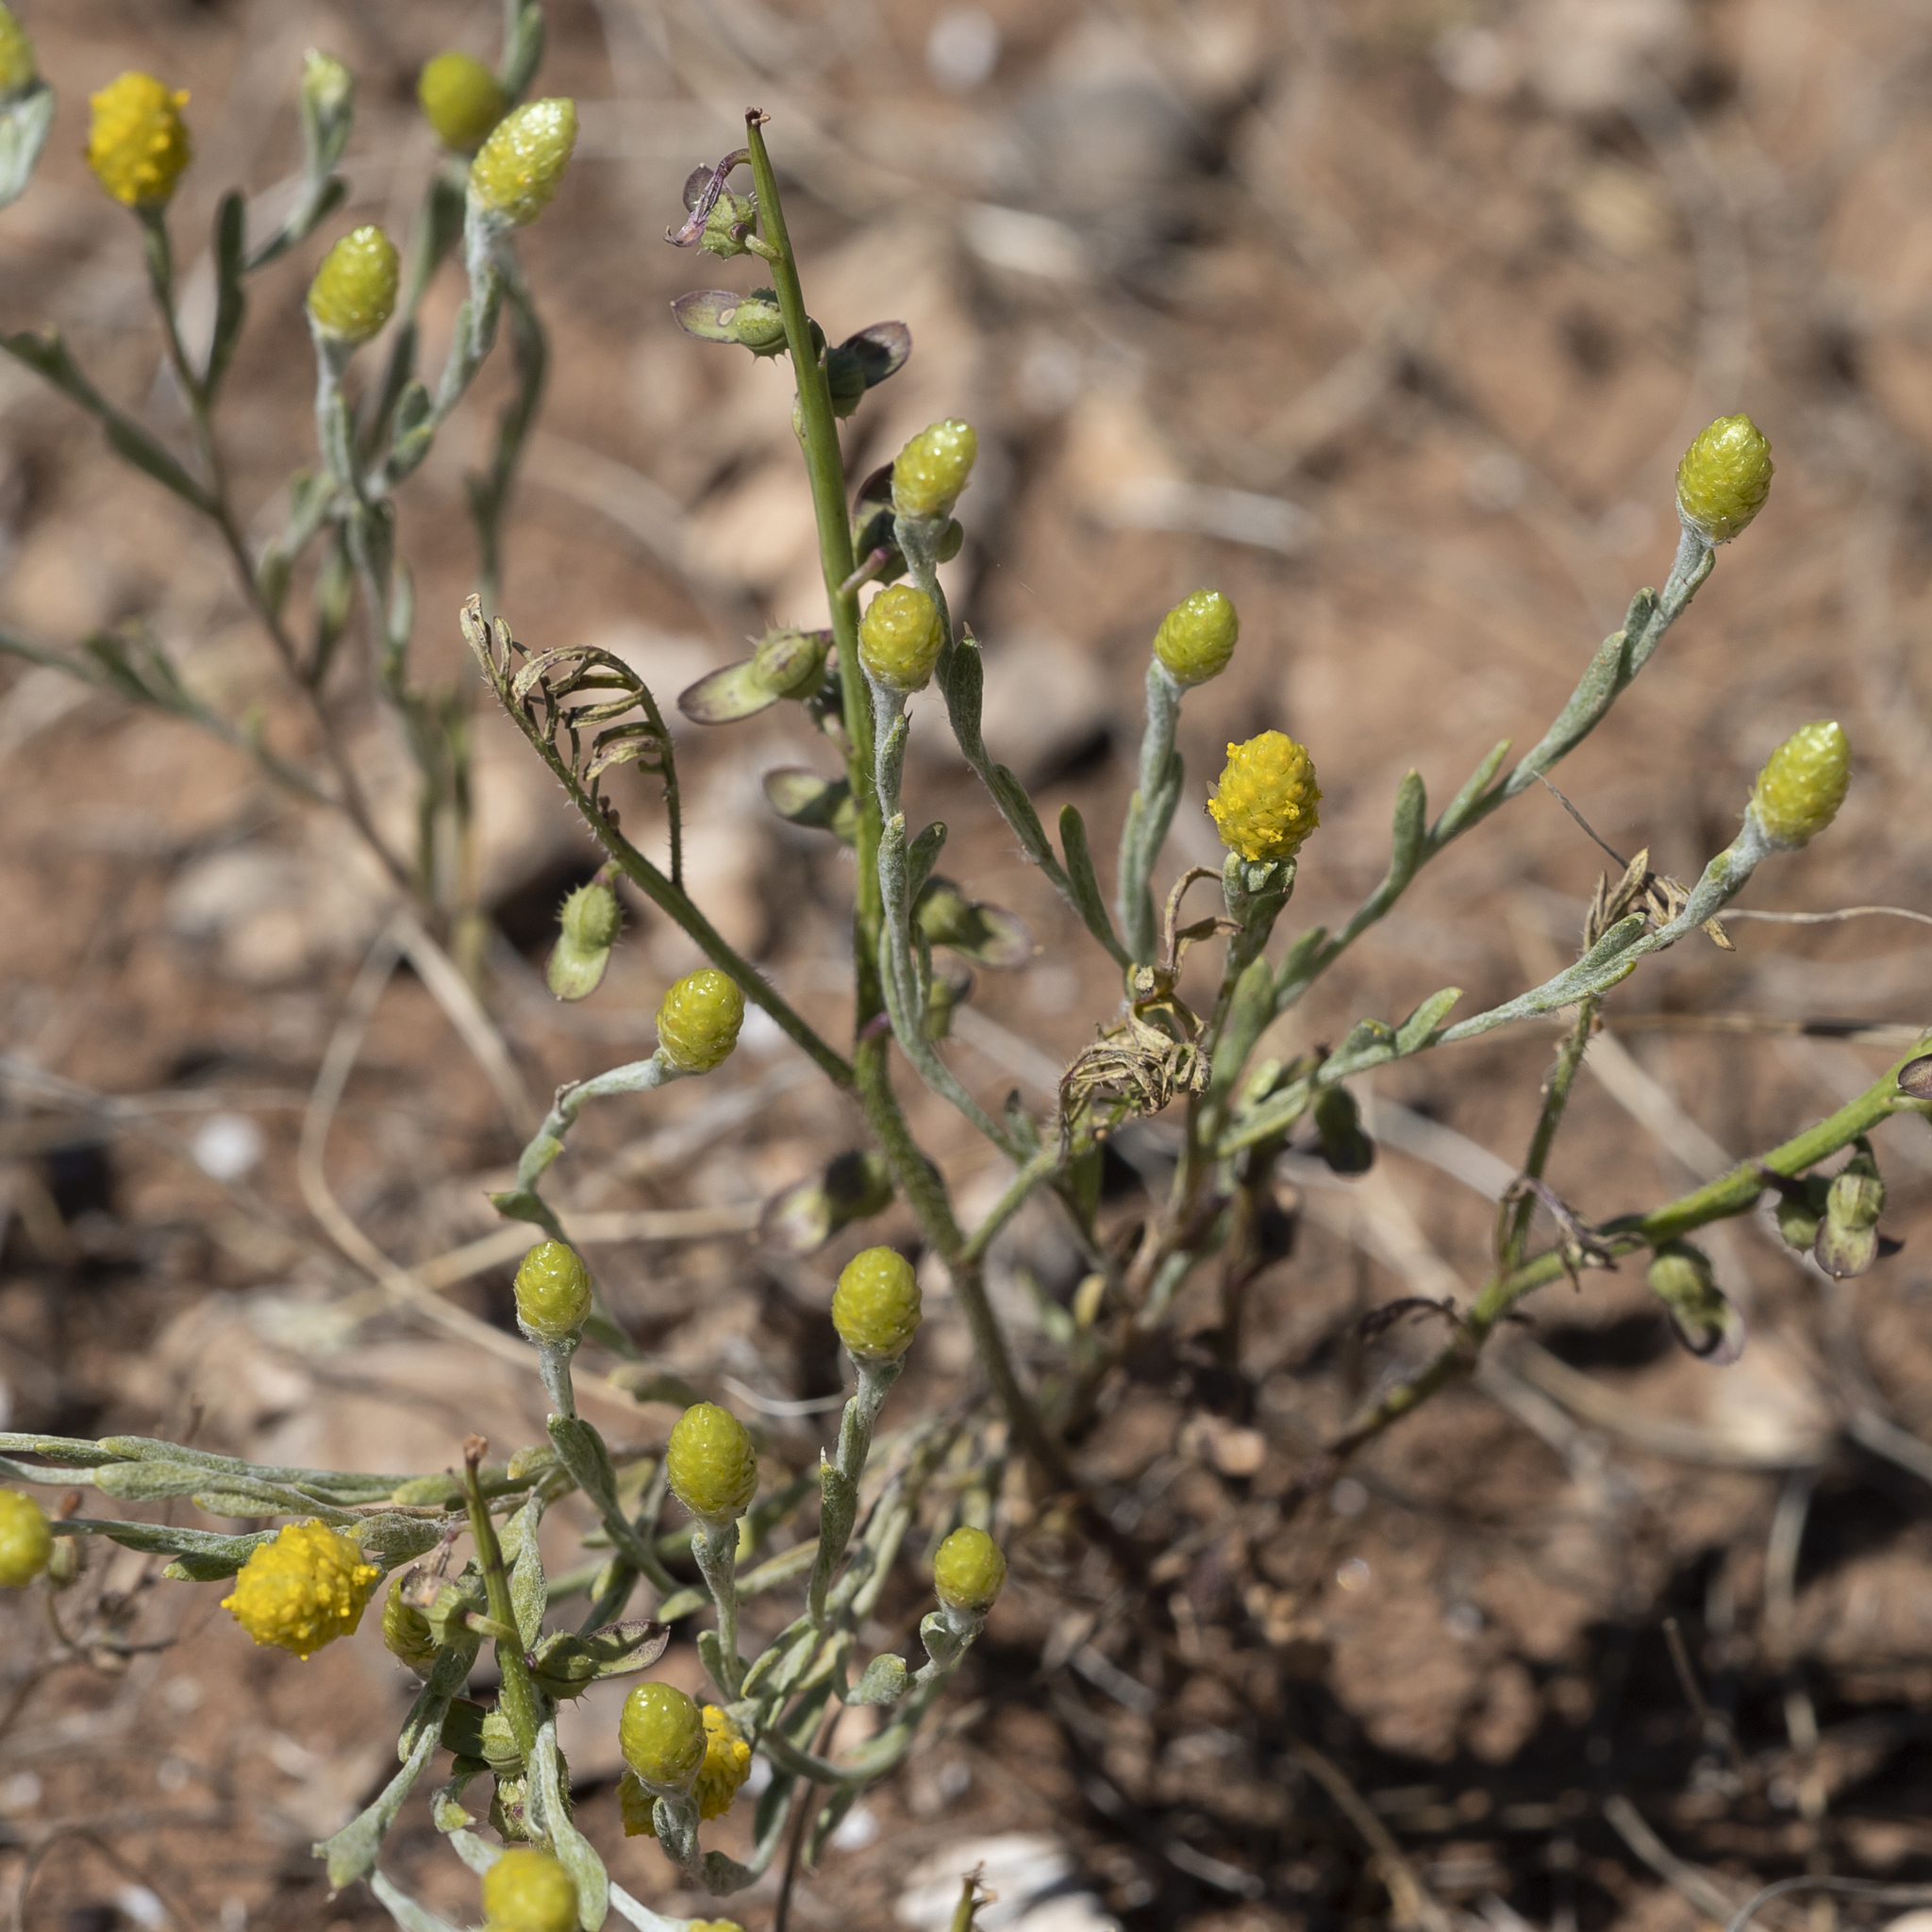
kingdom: Plantae
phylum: Tracheophyta
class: Magnoliopsida
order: Asterales
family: Asteraceae
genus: Siloxerus
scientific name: Siloxerus tomentosus
